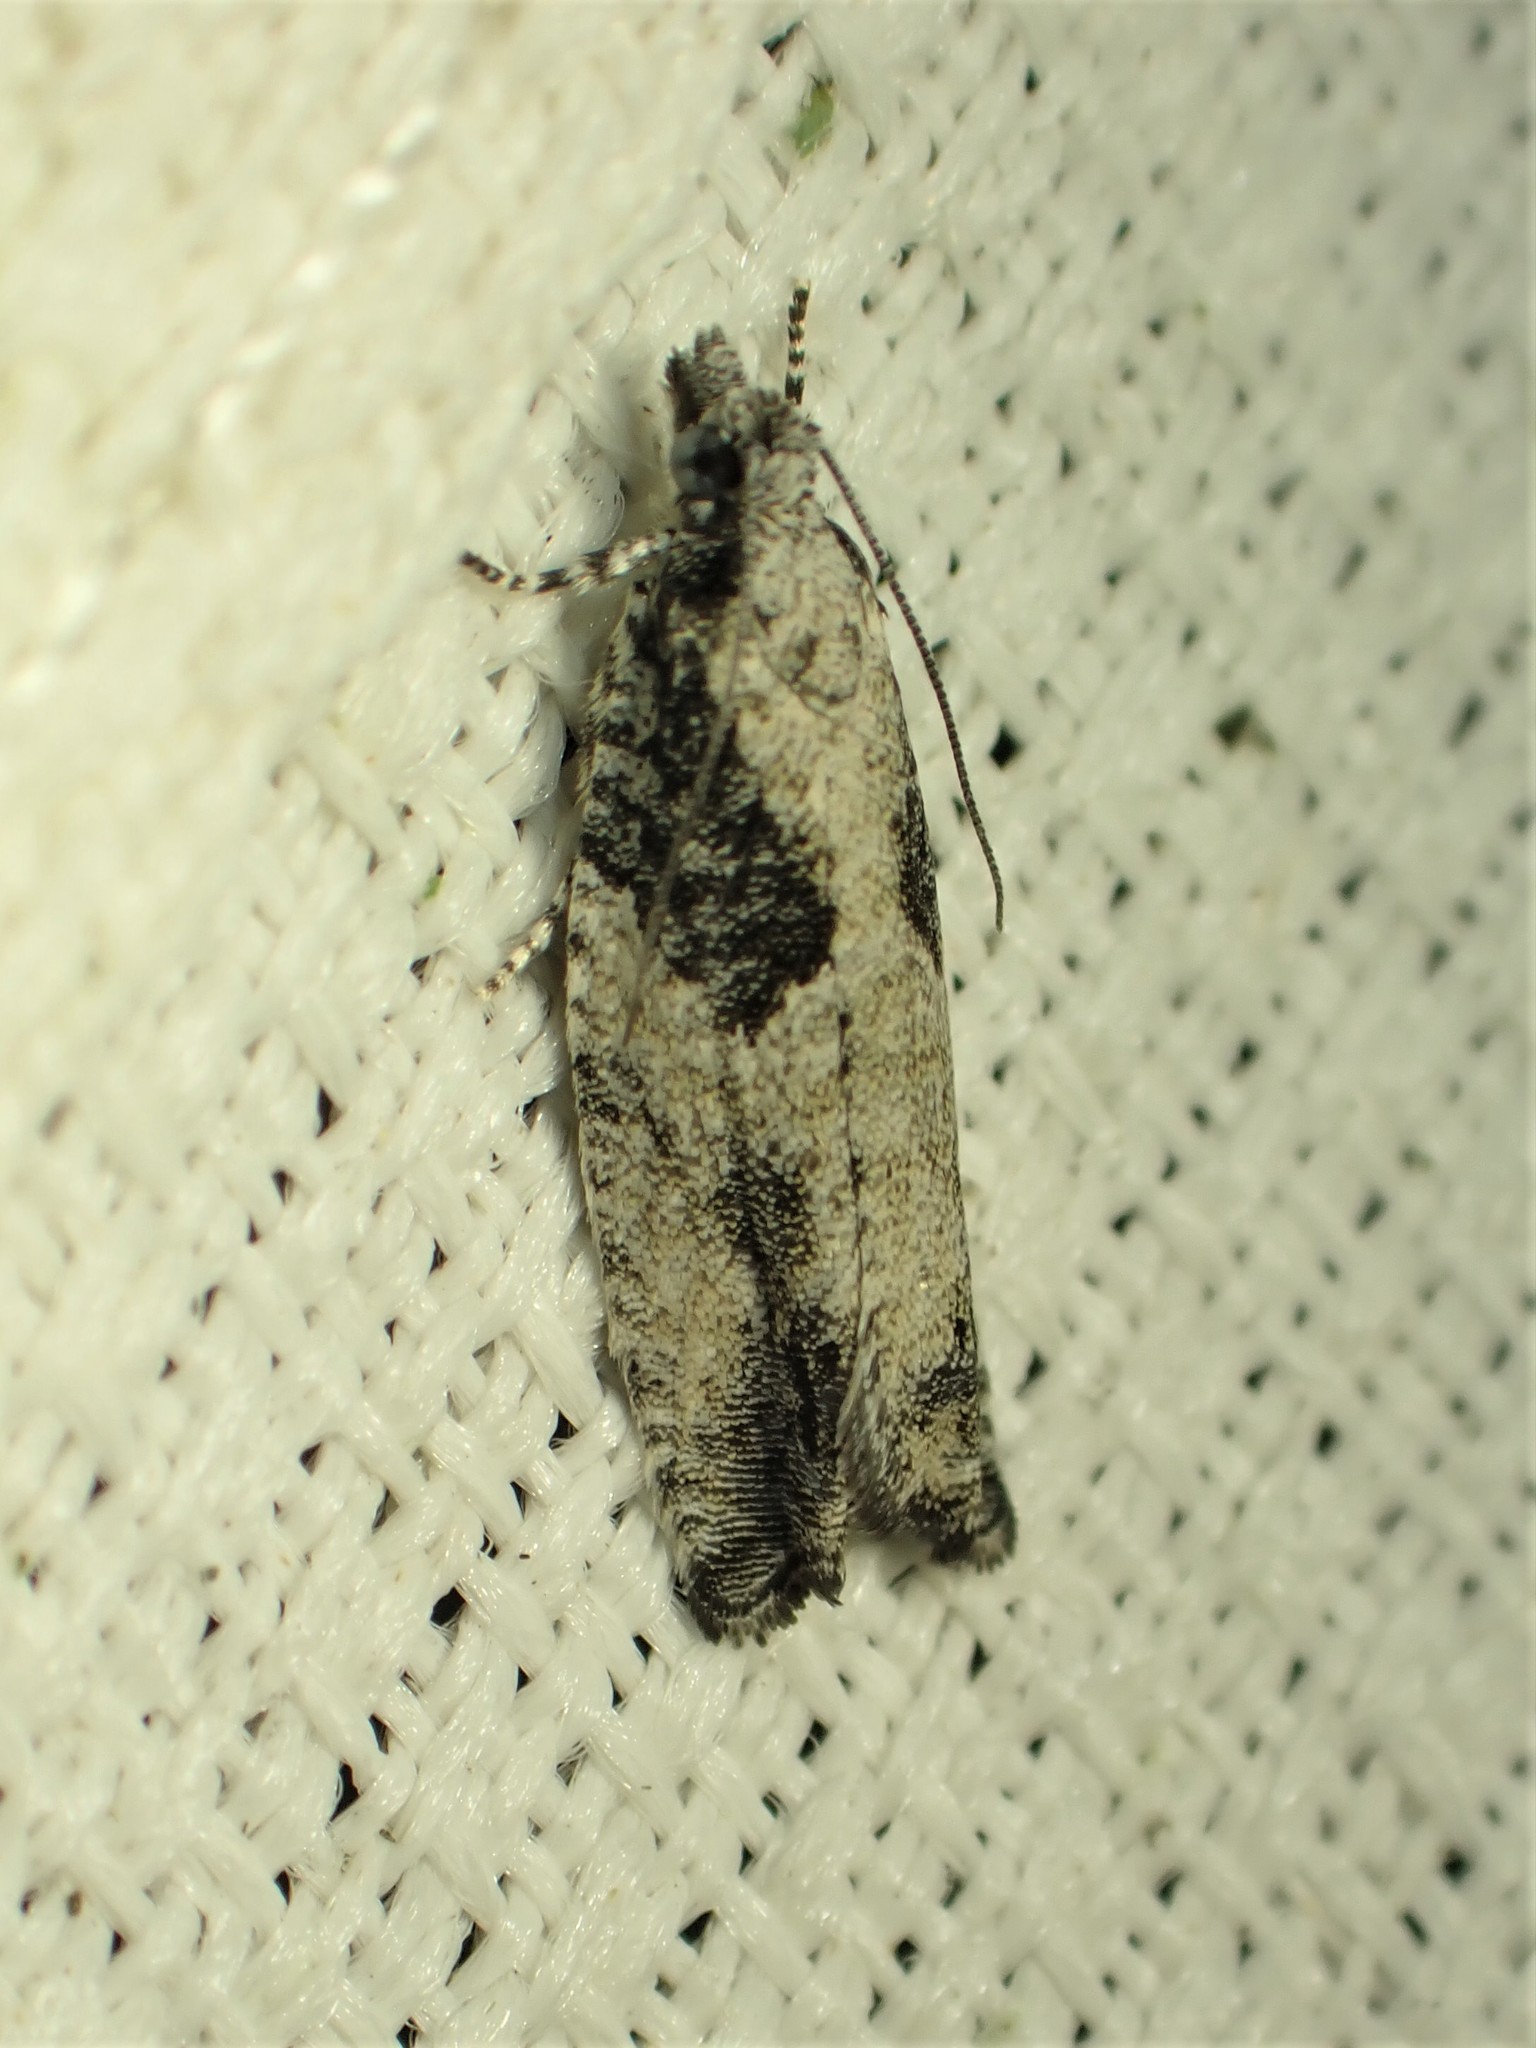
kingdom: Animalia
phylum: Arthropoda
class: Insecta
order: Lepidoptera
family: Tortricidae
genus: Epinotia
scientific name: Epinotia cinereana
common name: Grey aspen bell
